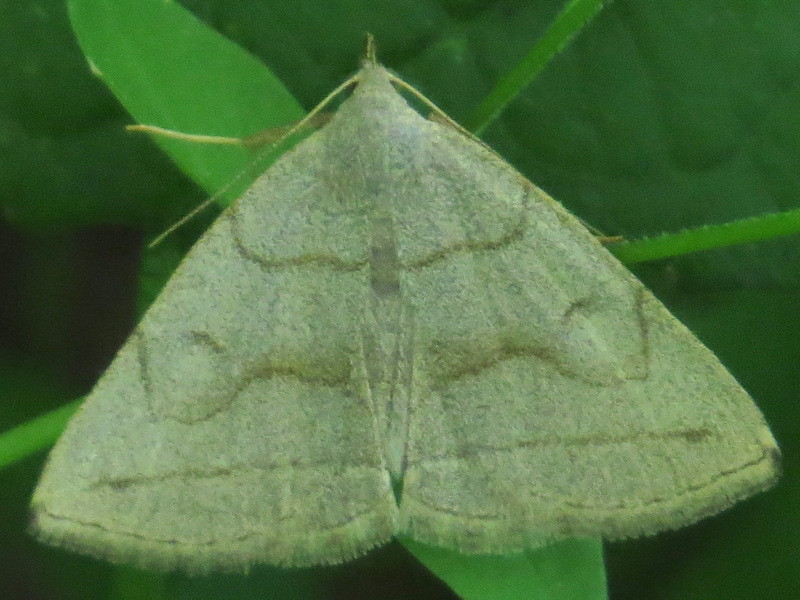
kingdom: Animalia
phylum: Arthropoda
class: Insecta
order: Lepidoptera
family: Erebidae
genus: Zanclognatha
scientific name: Zanclognatha pedipilalis
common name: Grayish fan-foot
